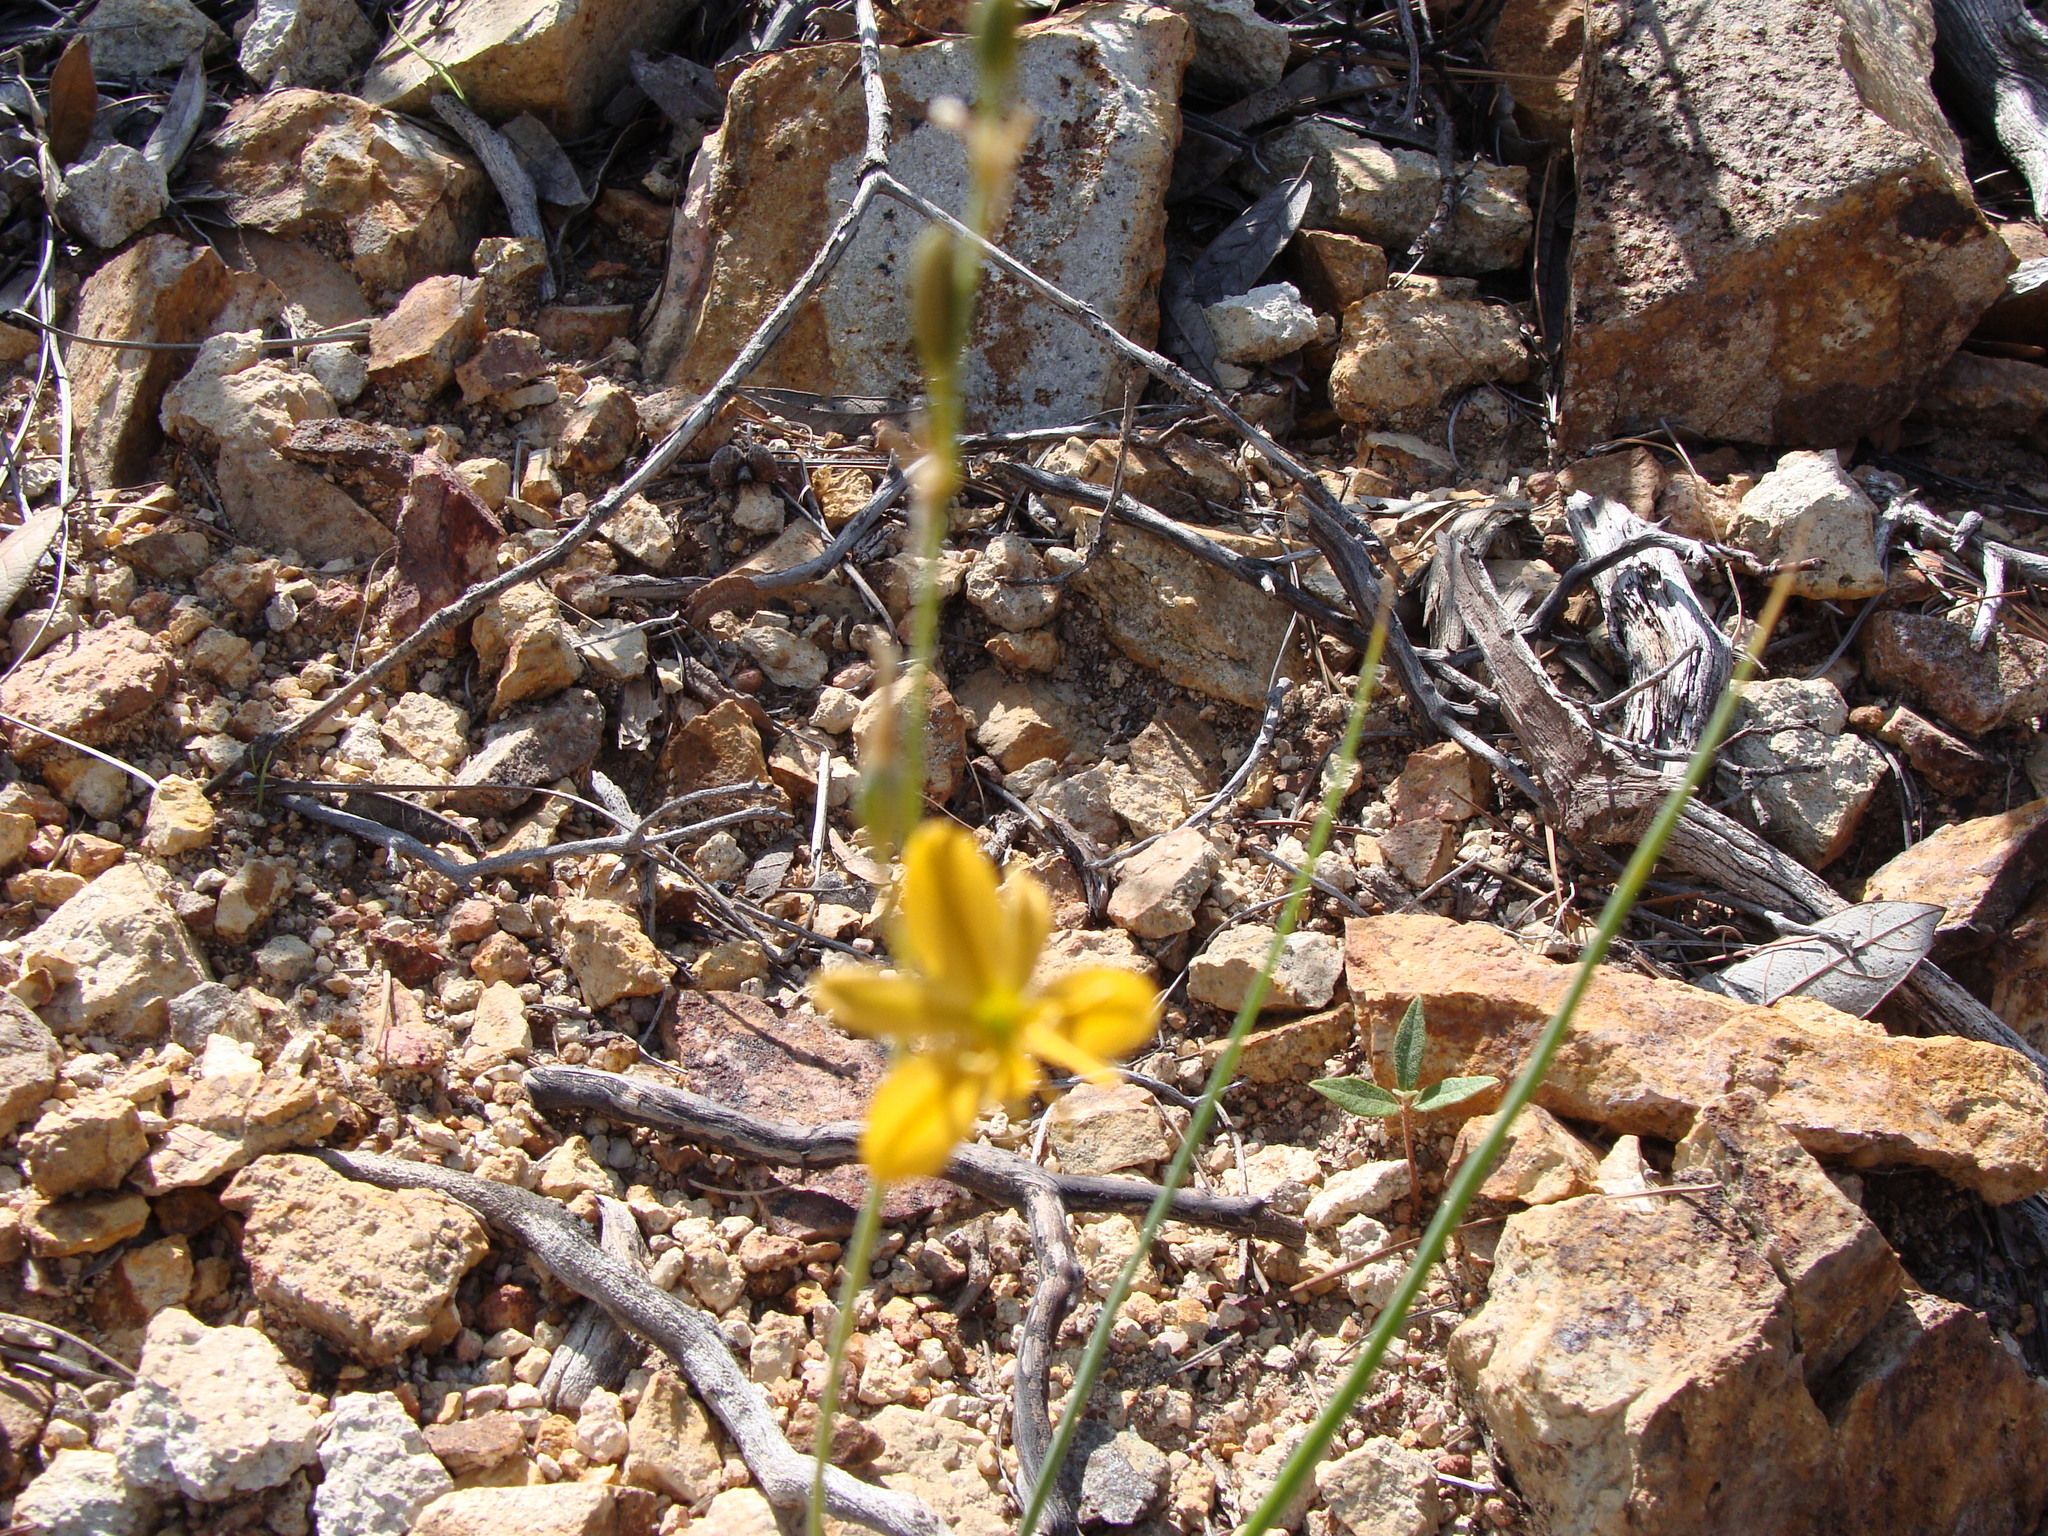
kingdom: Plantae
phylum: Tracheophyta
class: Liliopsida
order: Asparagales
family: Asparagaceae
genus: Echeandia
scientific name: Echeandia flavescens
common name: Amberlily
